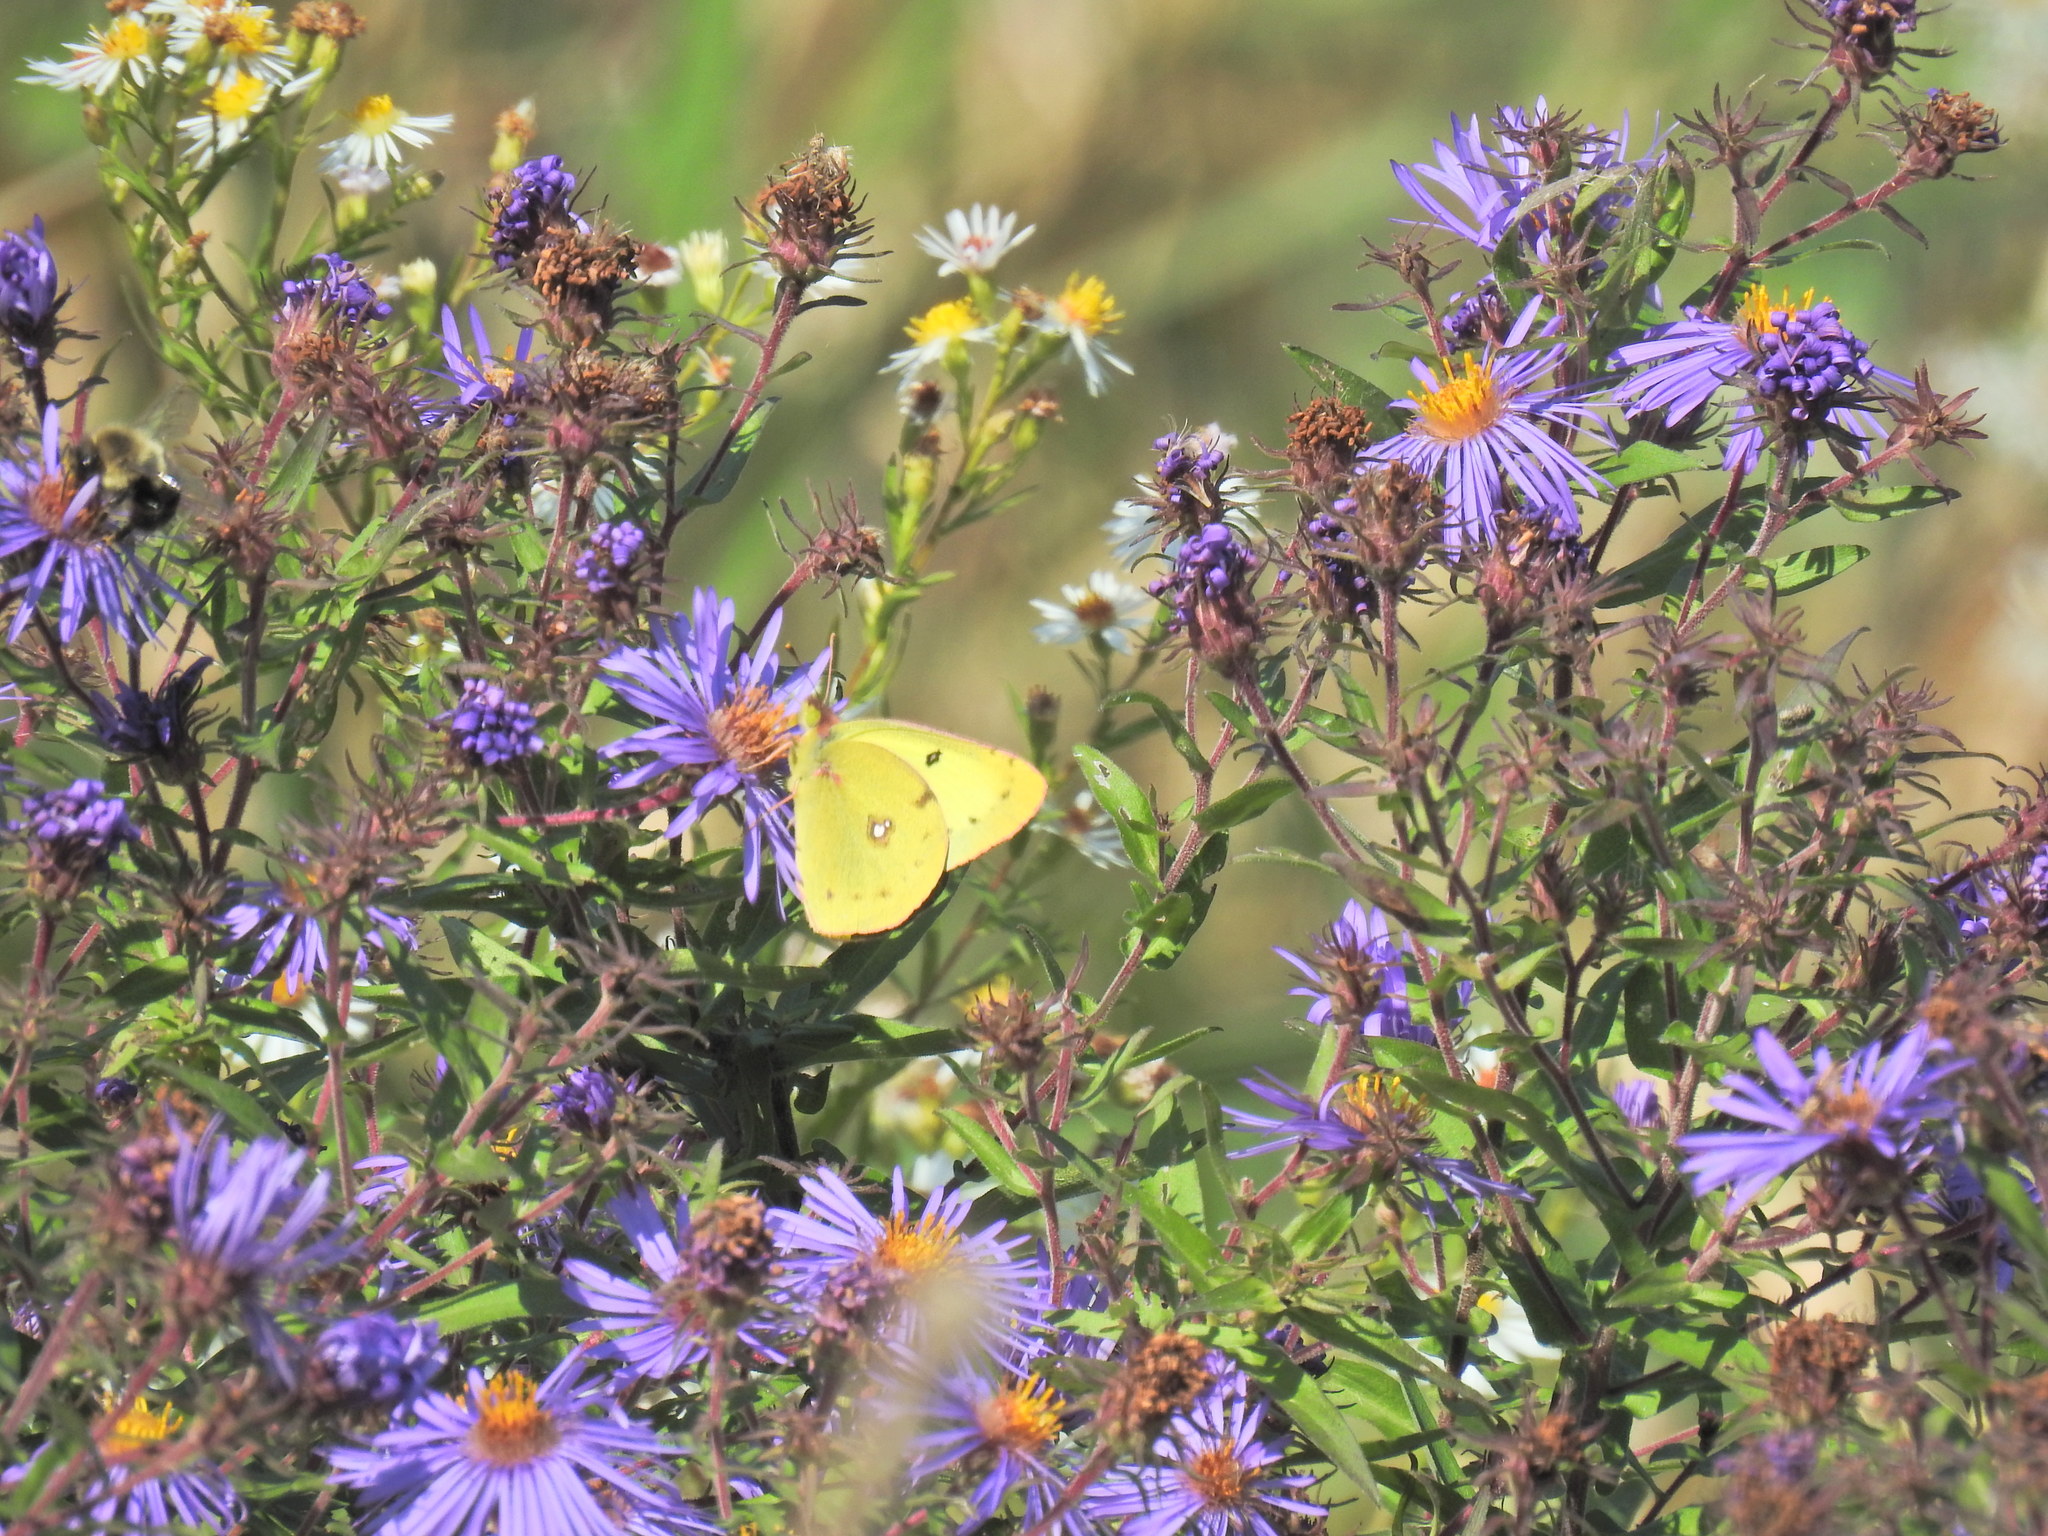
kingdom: Animalia
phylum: Arthropoda
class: Insecta
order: Lepidoptera
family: Pieridae
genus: Colias
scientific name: Colias philodice
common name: Clouded sulphur
